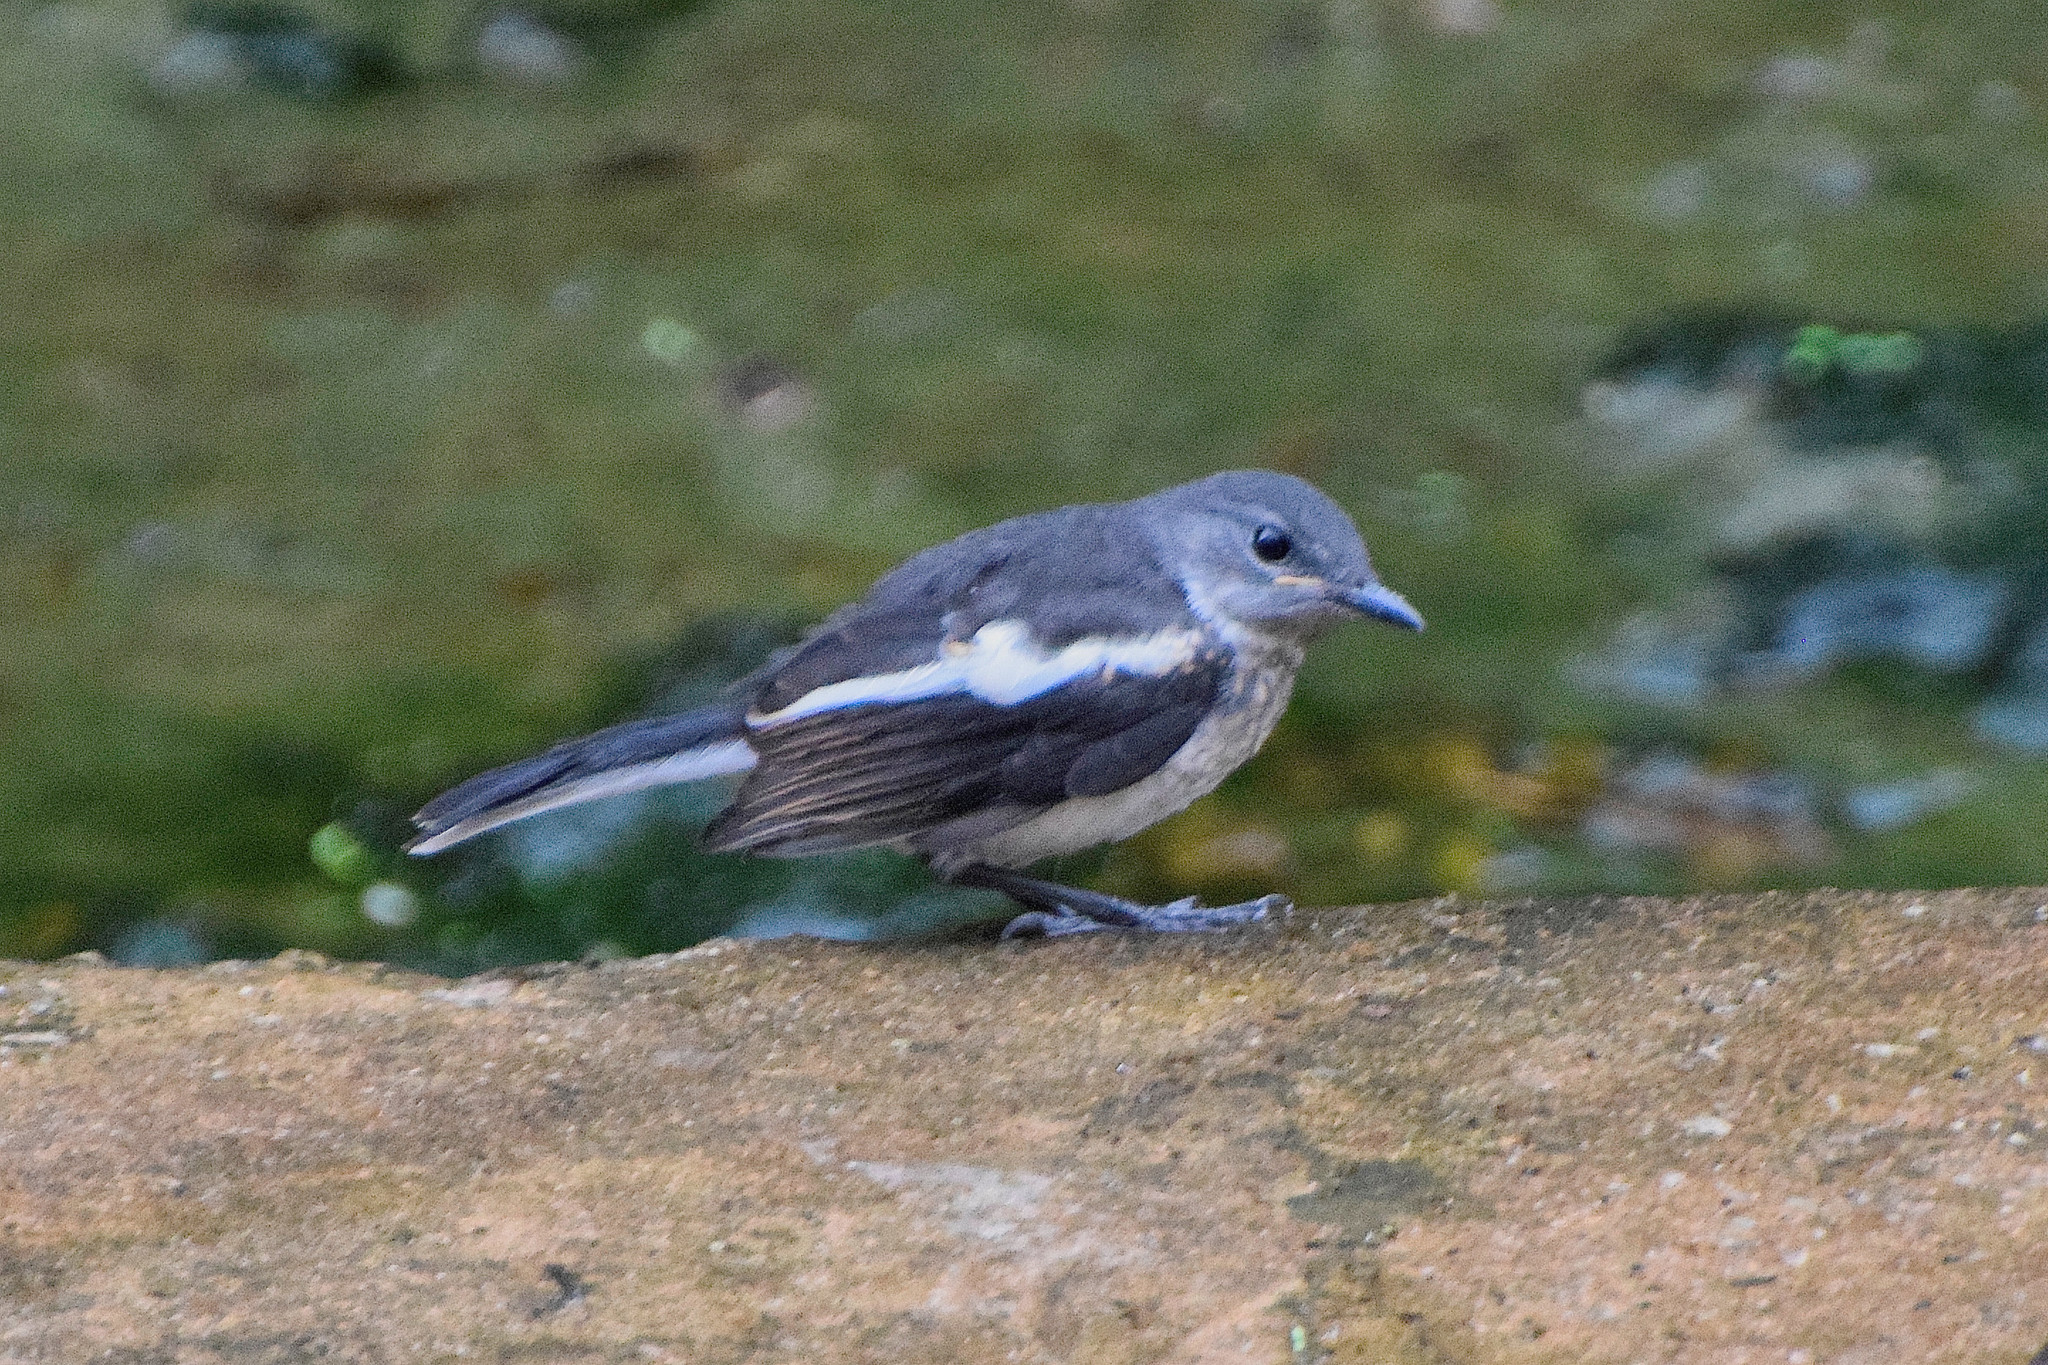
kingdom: Animalia
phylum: Chordata
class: Aves
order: Passeriformes
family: Muscicapidae
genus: Copsychus
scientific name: Copsychus saularis
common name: Oriental magpie-robin
